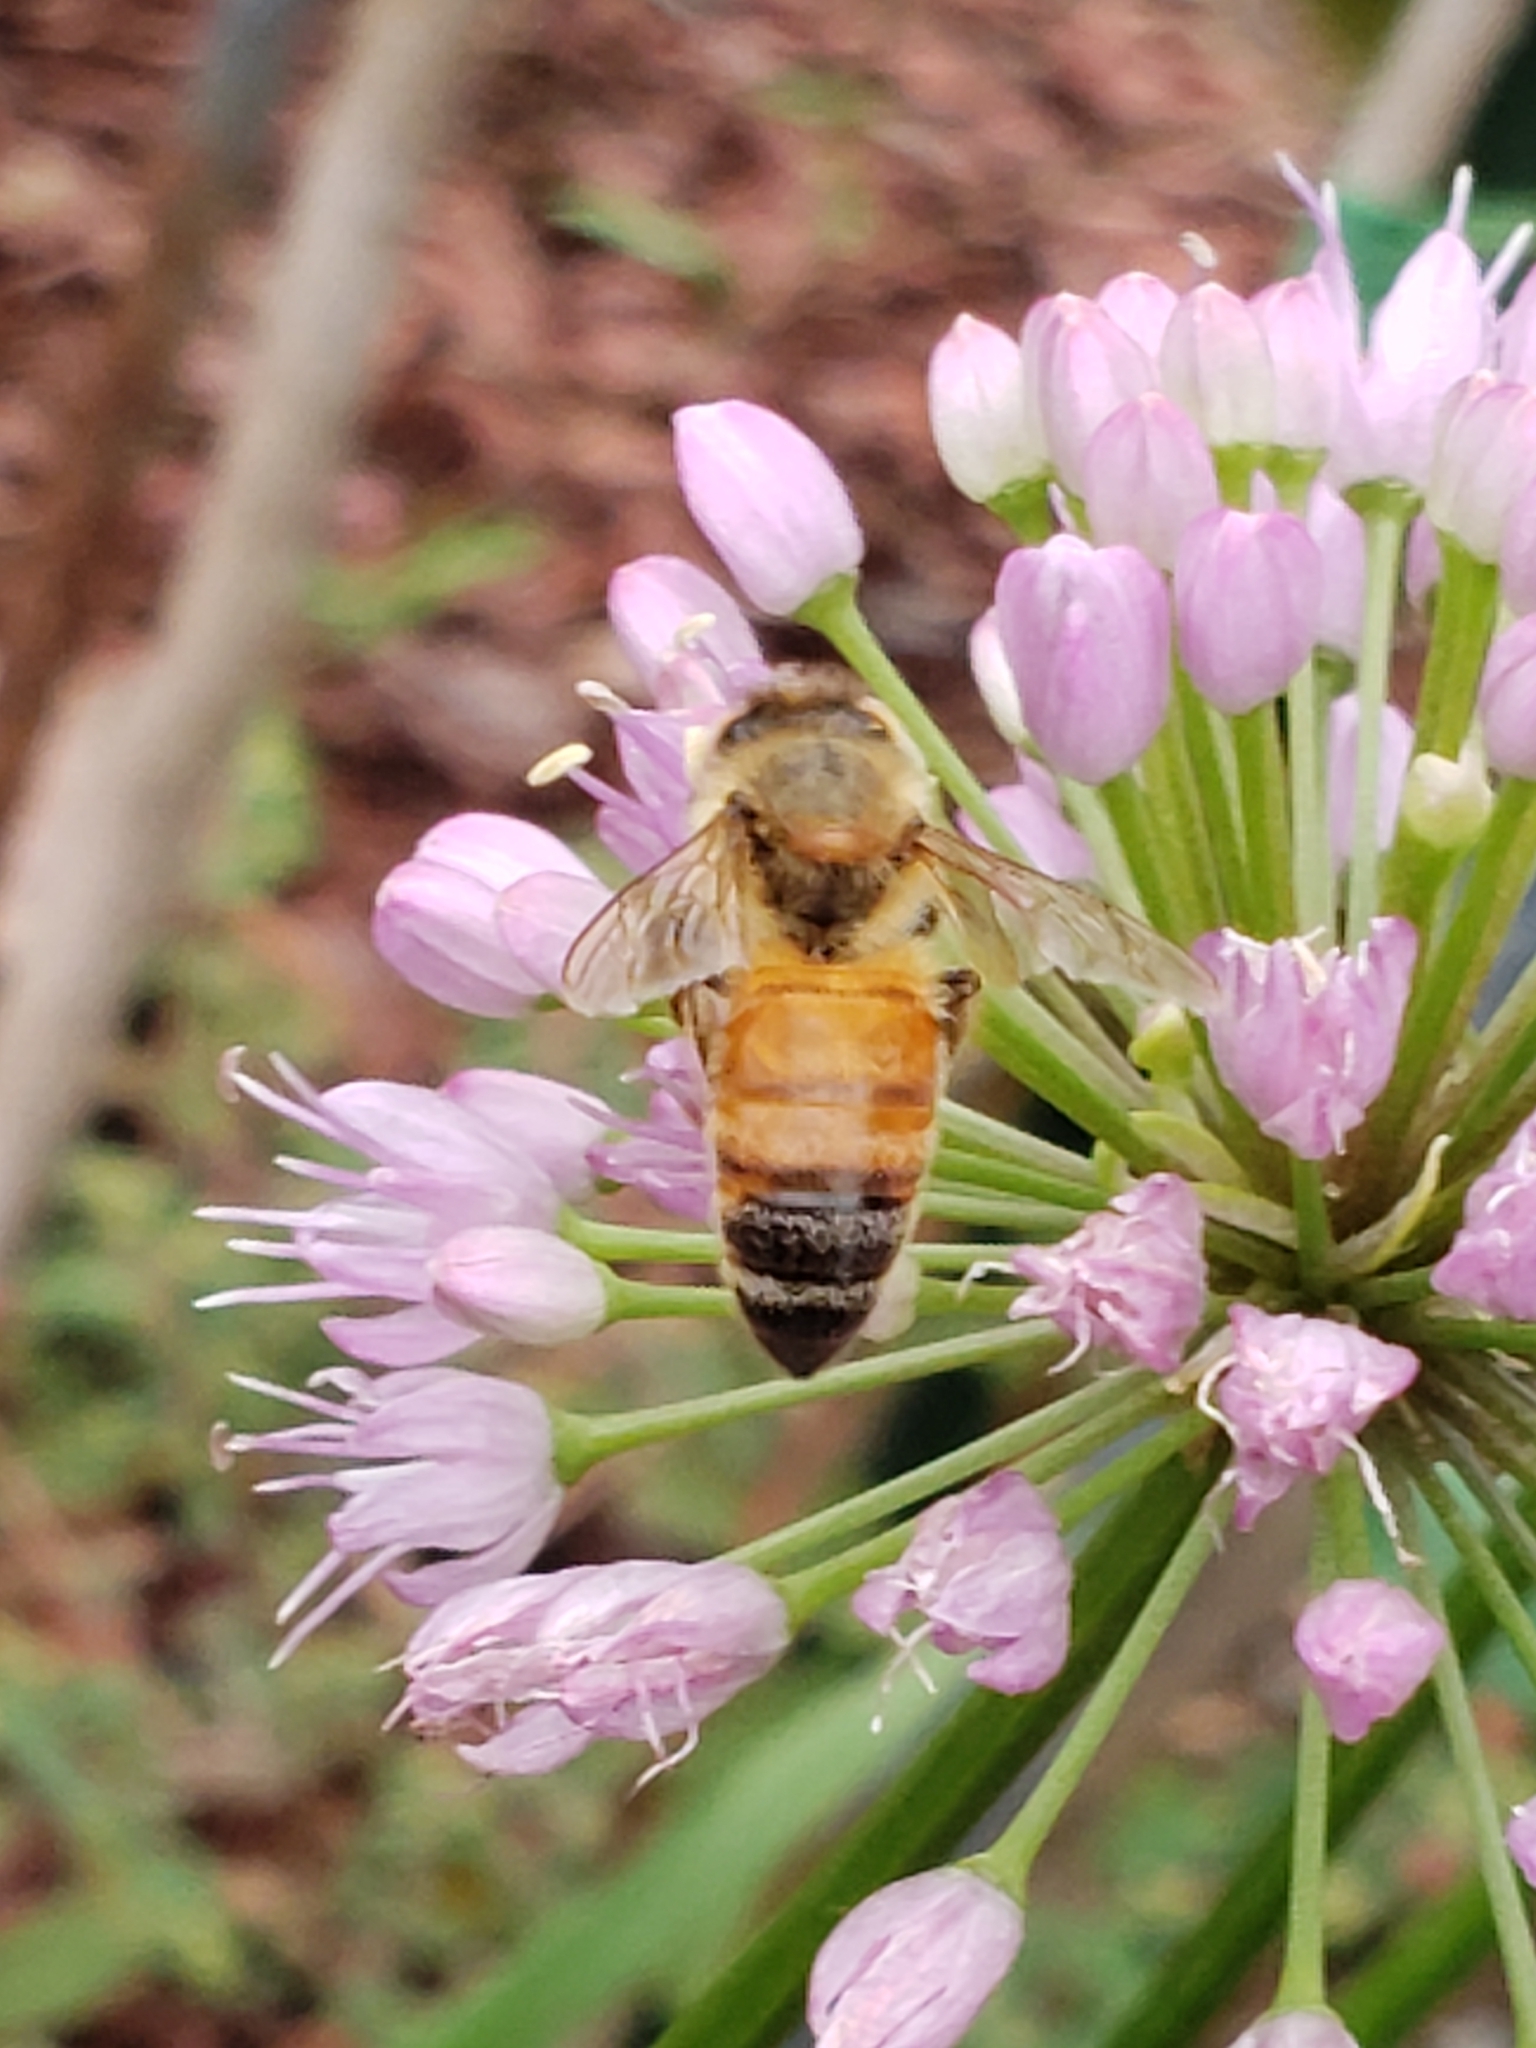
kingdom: Animalia
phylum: Arthropoda
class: Insecta
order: Hymenoptera
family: Apidae
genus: Apis
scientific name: Apis mellifera
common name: Honey bee
